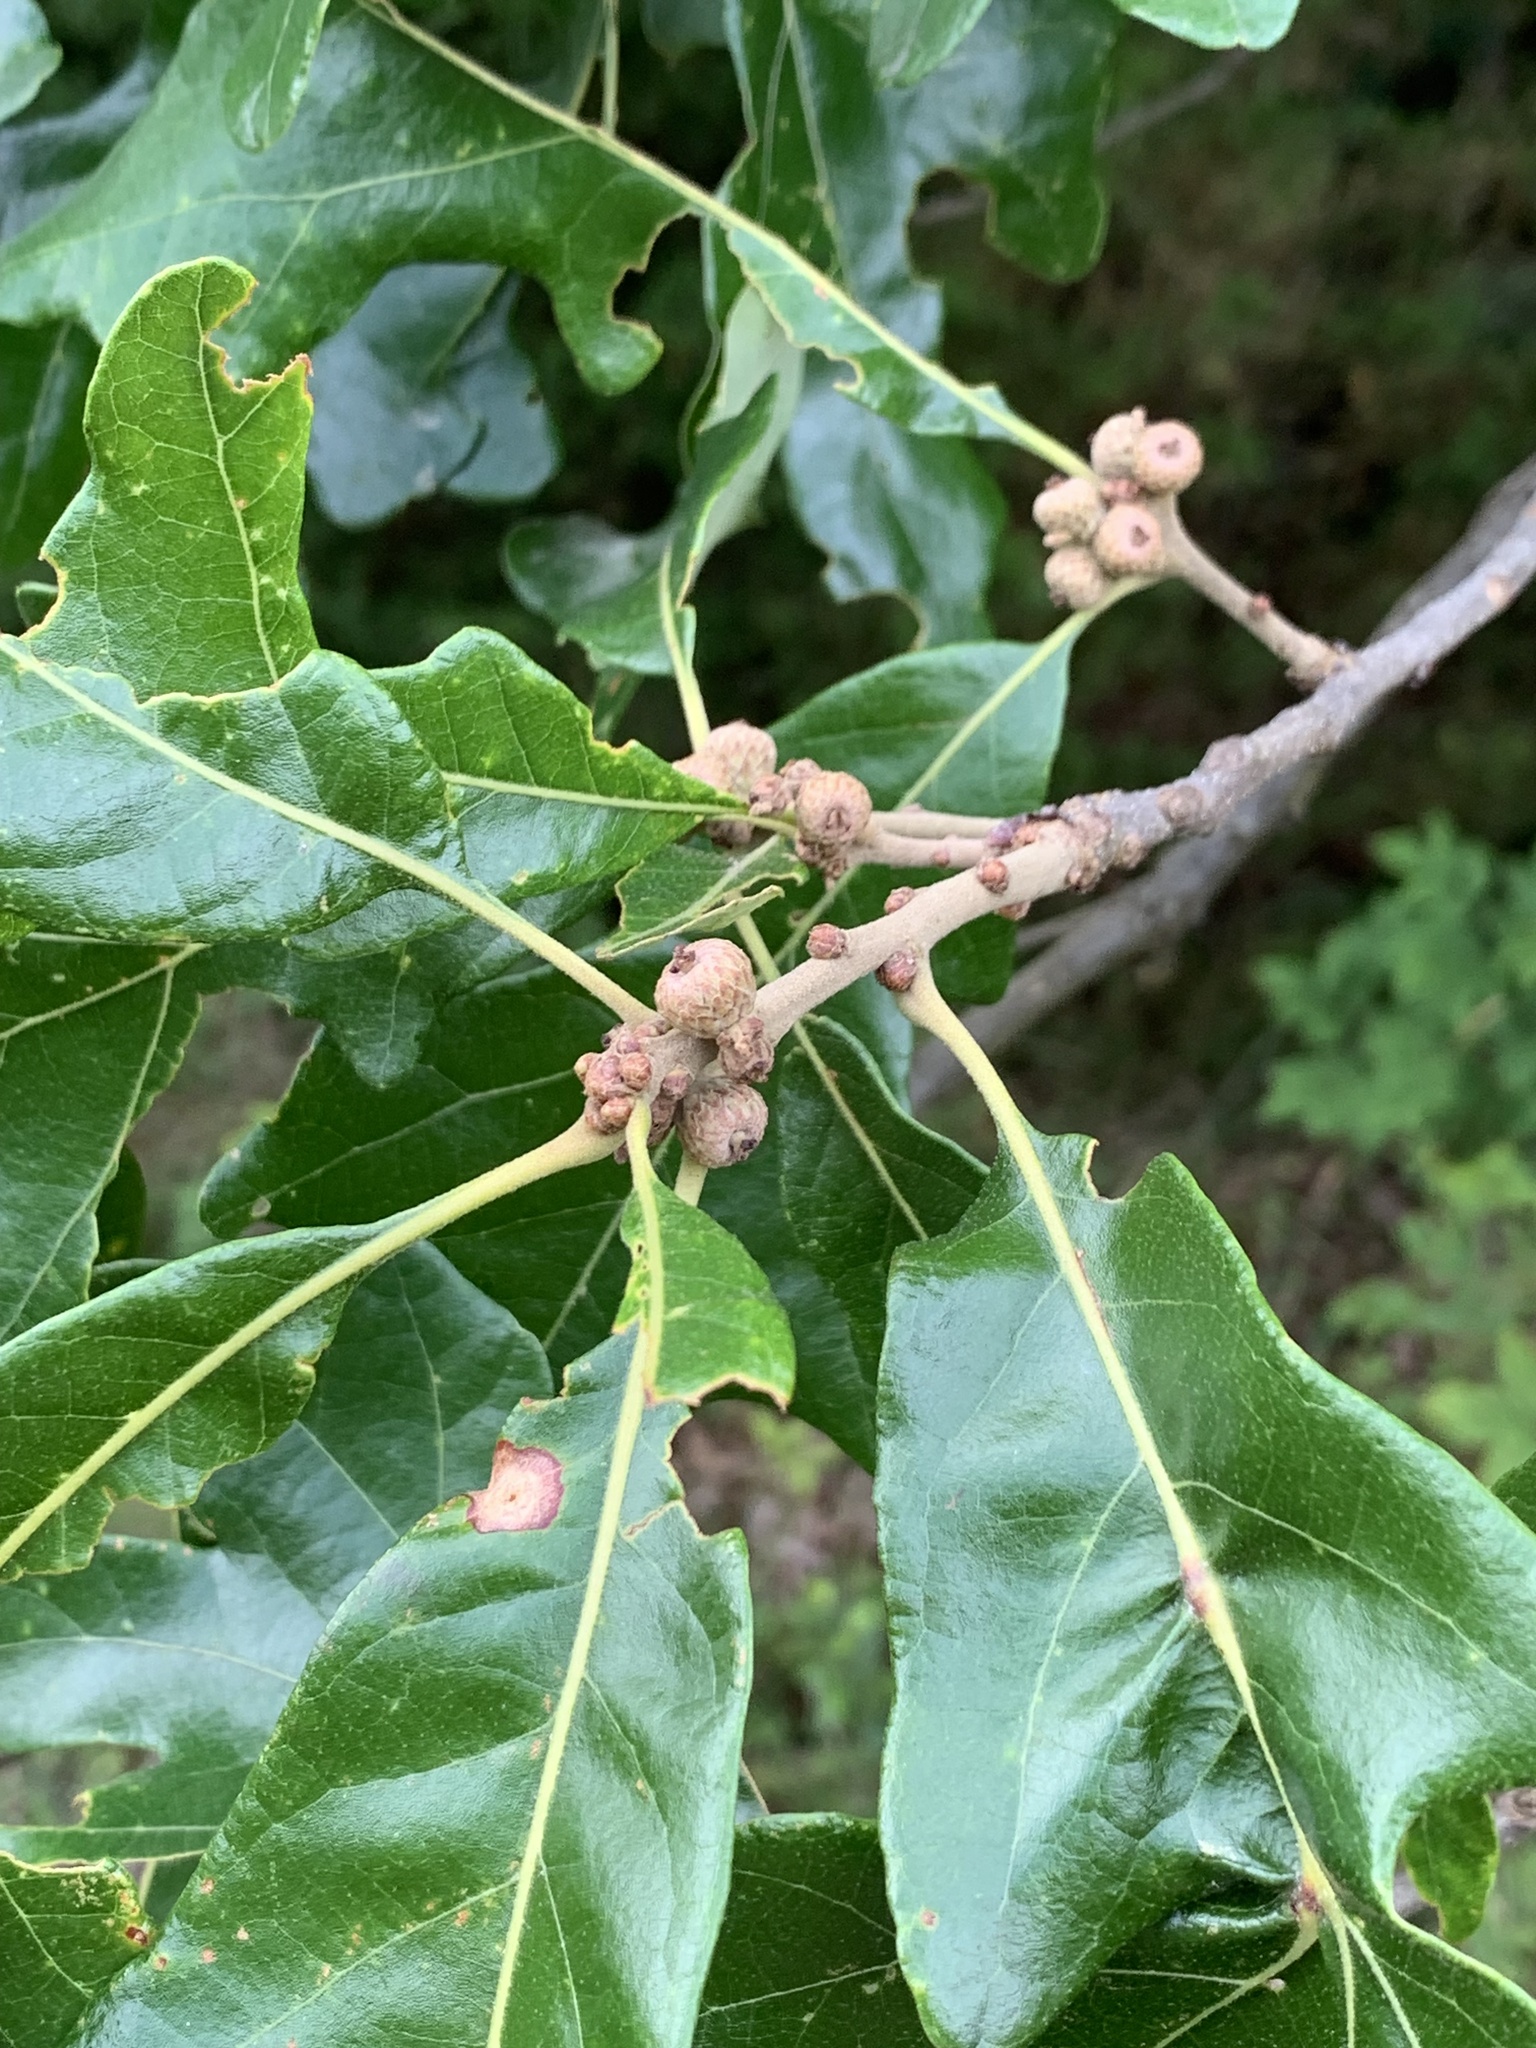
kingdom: Plantae
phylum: Tracheophyta
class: Magnoliopsida
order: Fagales
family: Fagaceae
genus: Quercus
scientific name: Quercus stellata
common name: Post oak
